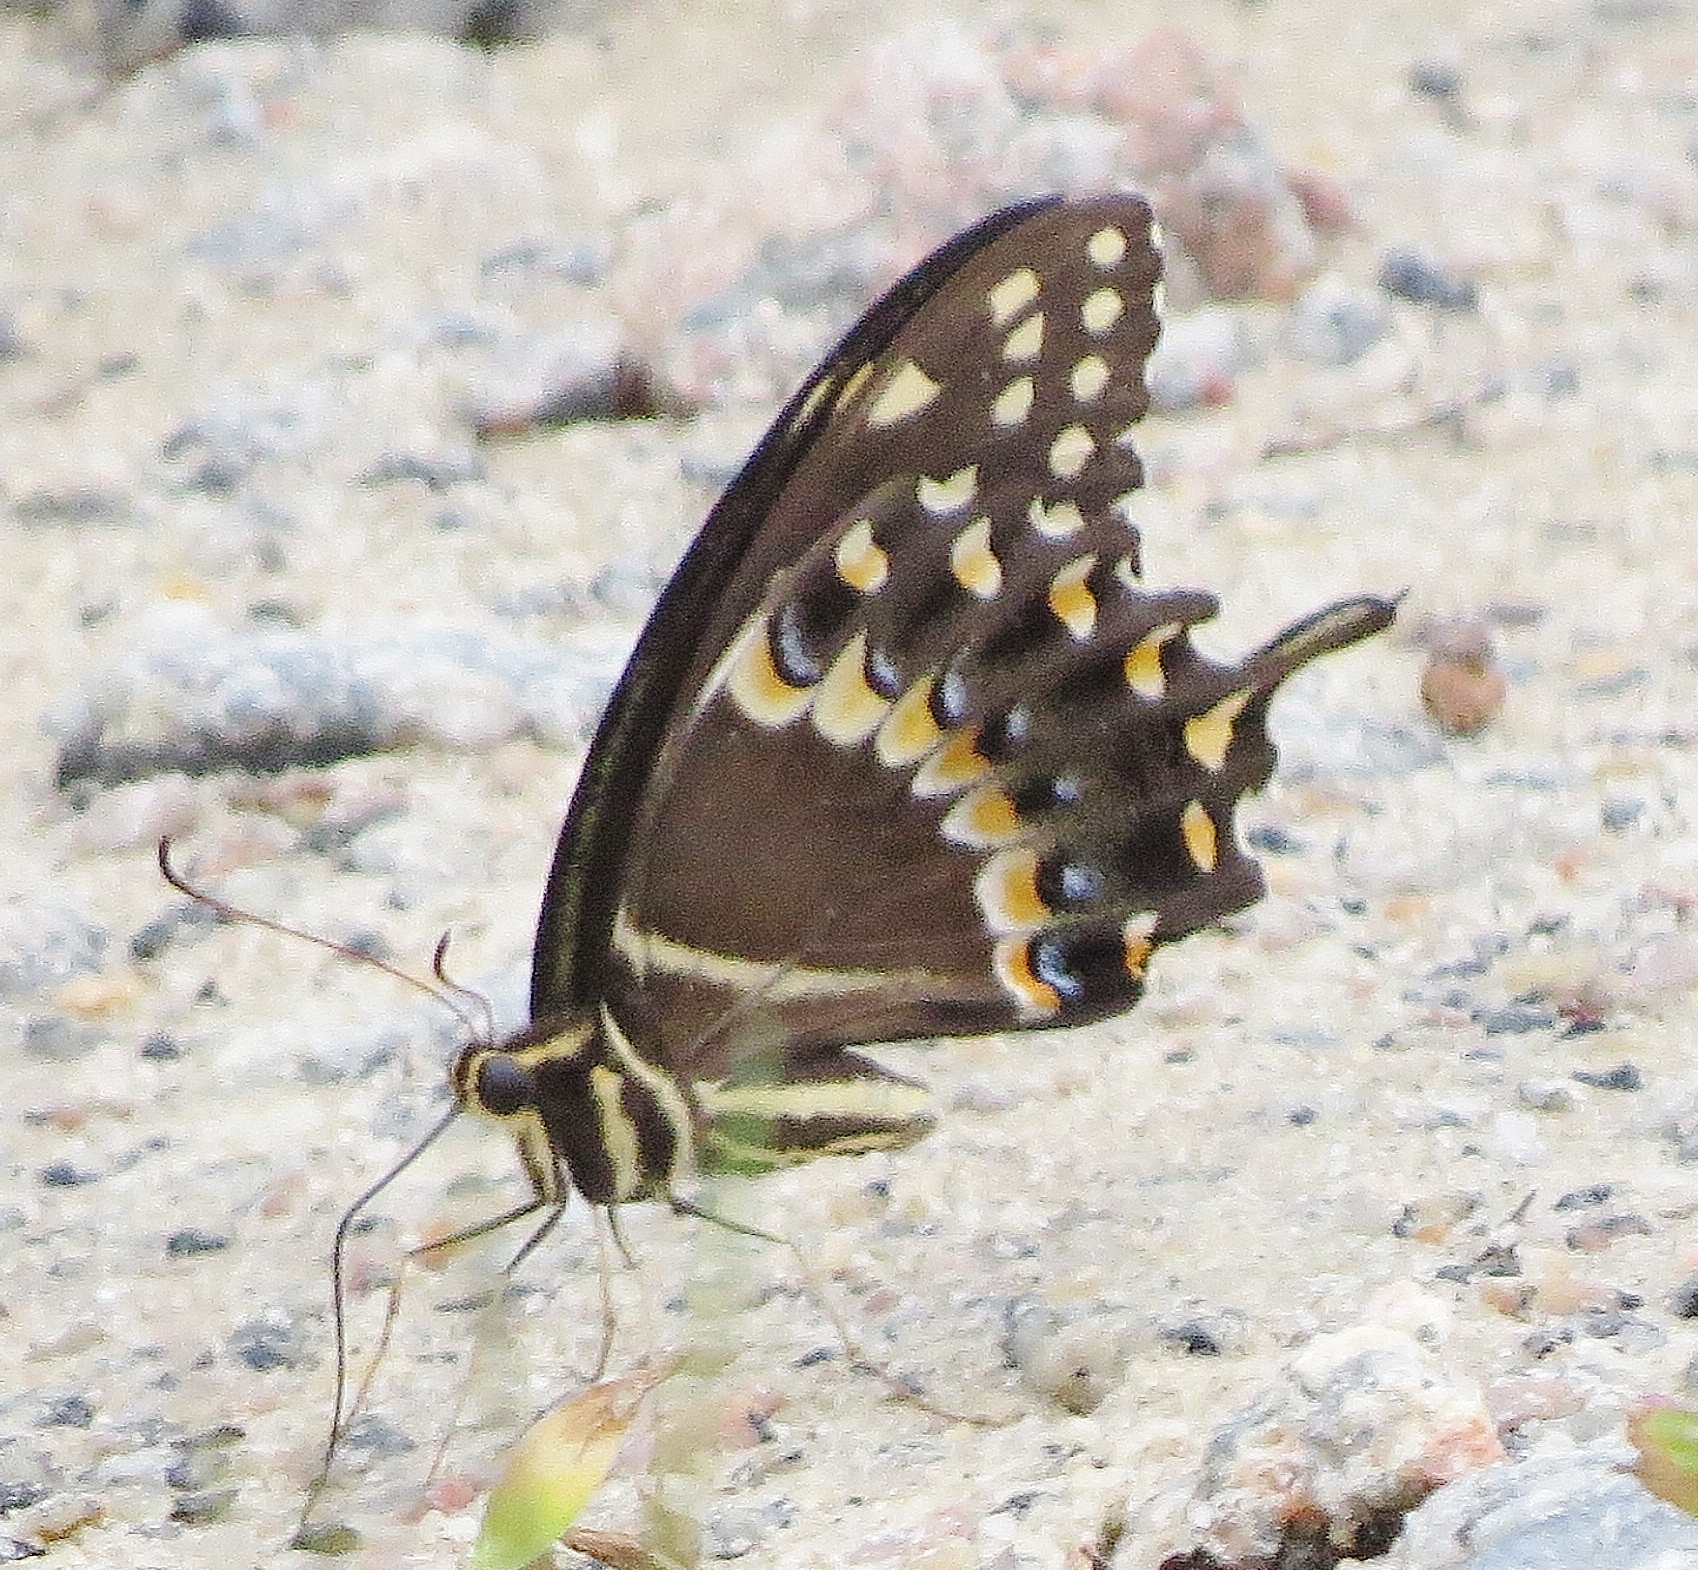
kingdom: Animalia
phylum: Arthropoda
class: Insecta
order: Lepidoptera
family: Papilionidae
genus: Papilio
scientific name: Papilio palamedes
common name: Palamedes swallowtail
